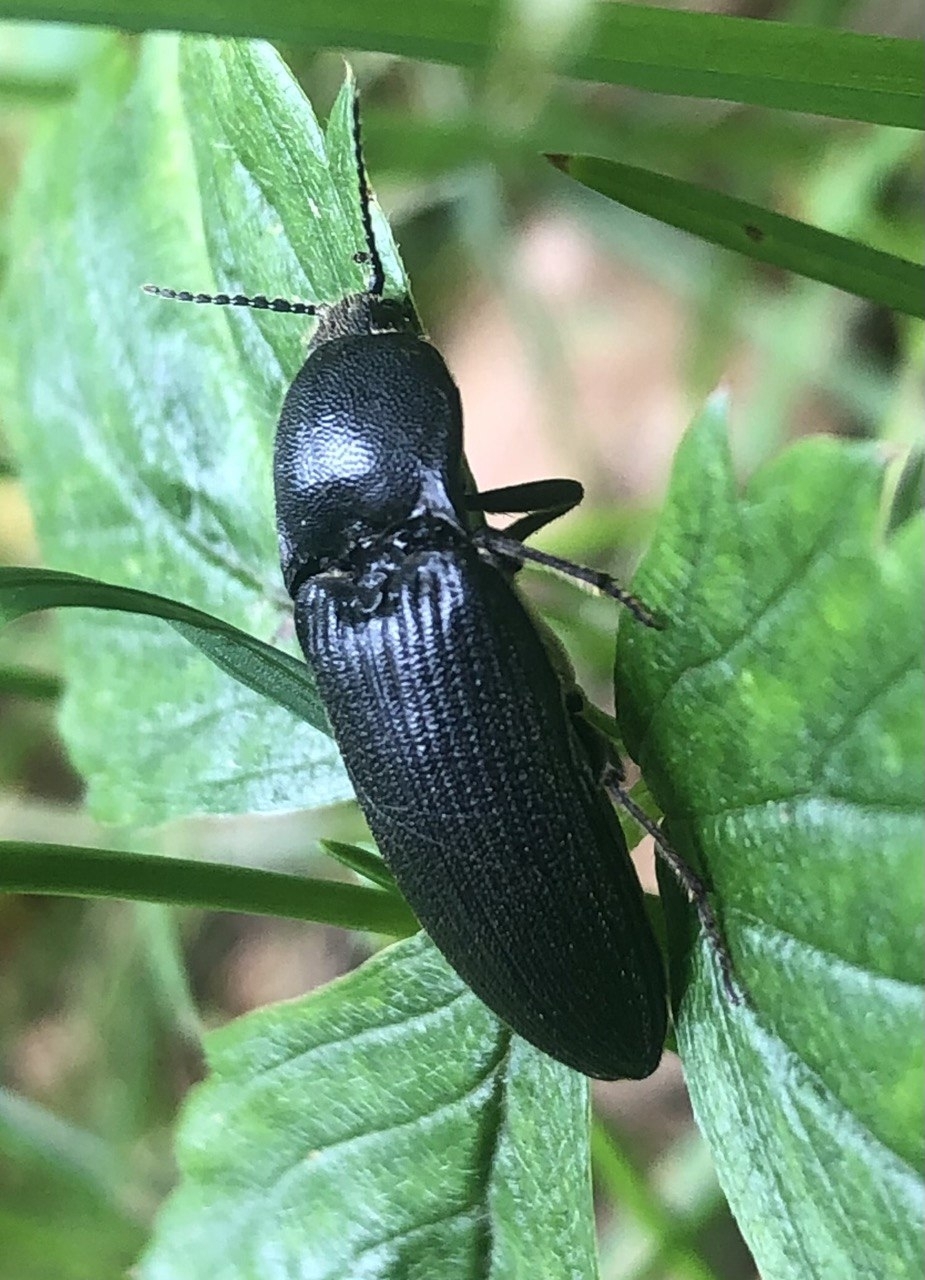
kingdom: Animalia
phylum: Arthropoda
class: Insecta
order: Coleoptera
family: Elateridae
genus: Hemicrepidius
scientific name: Hemicrepidius niger
